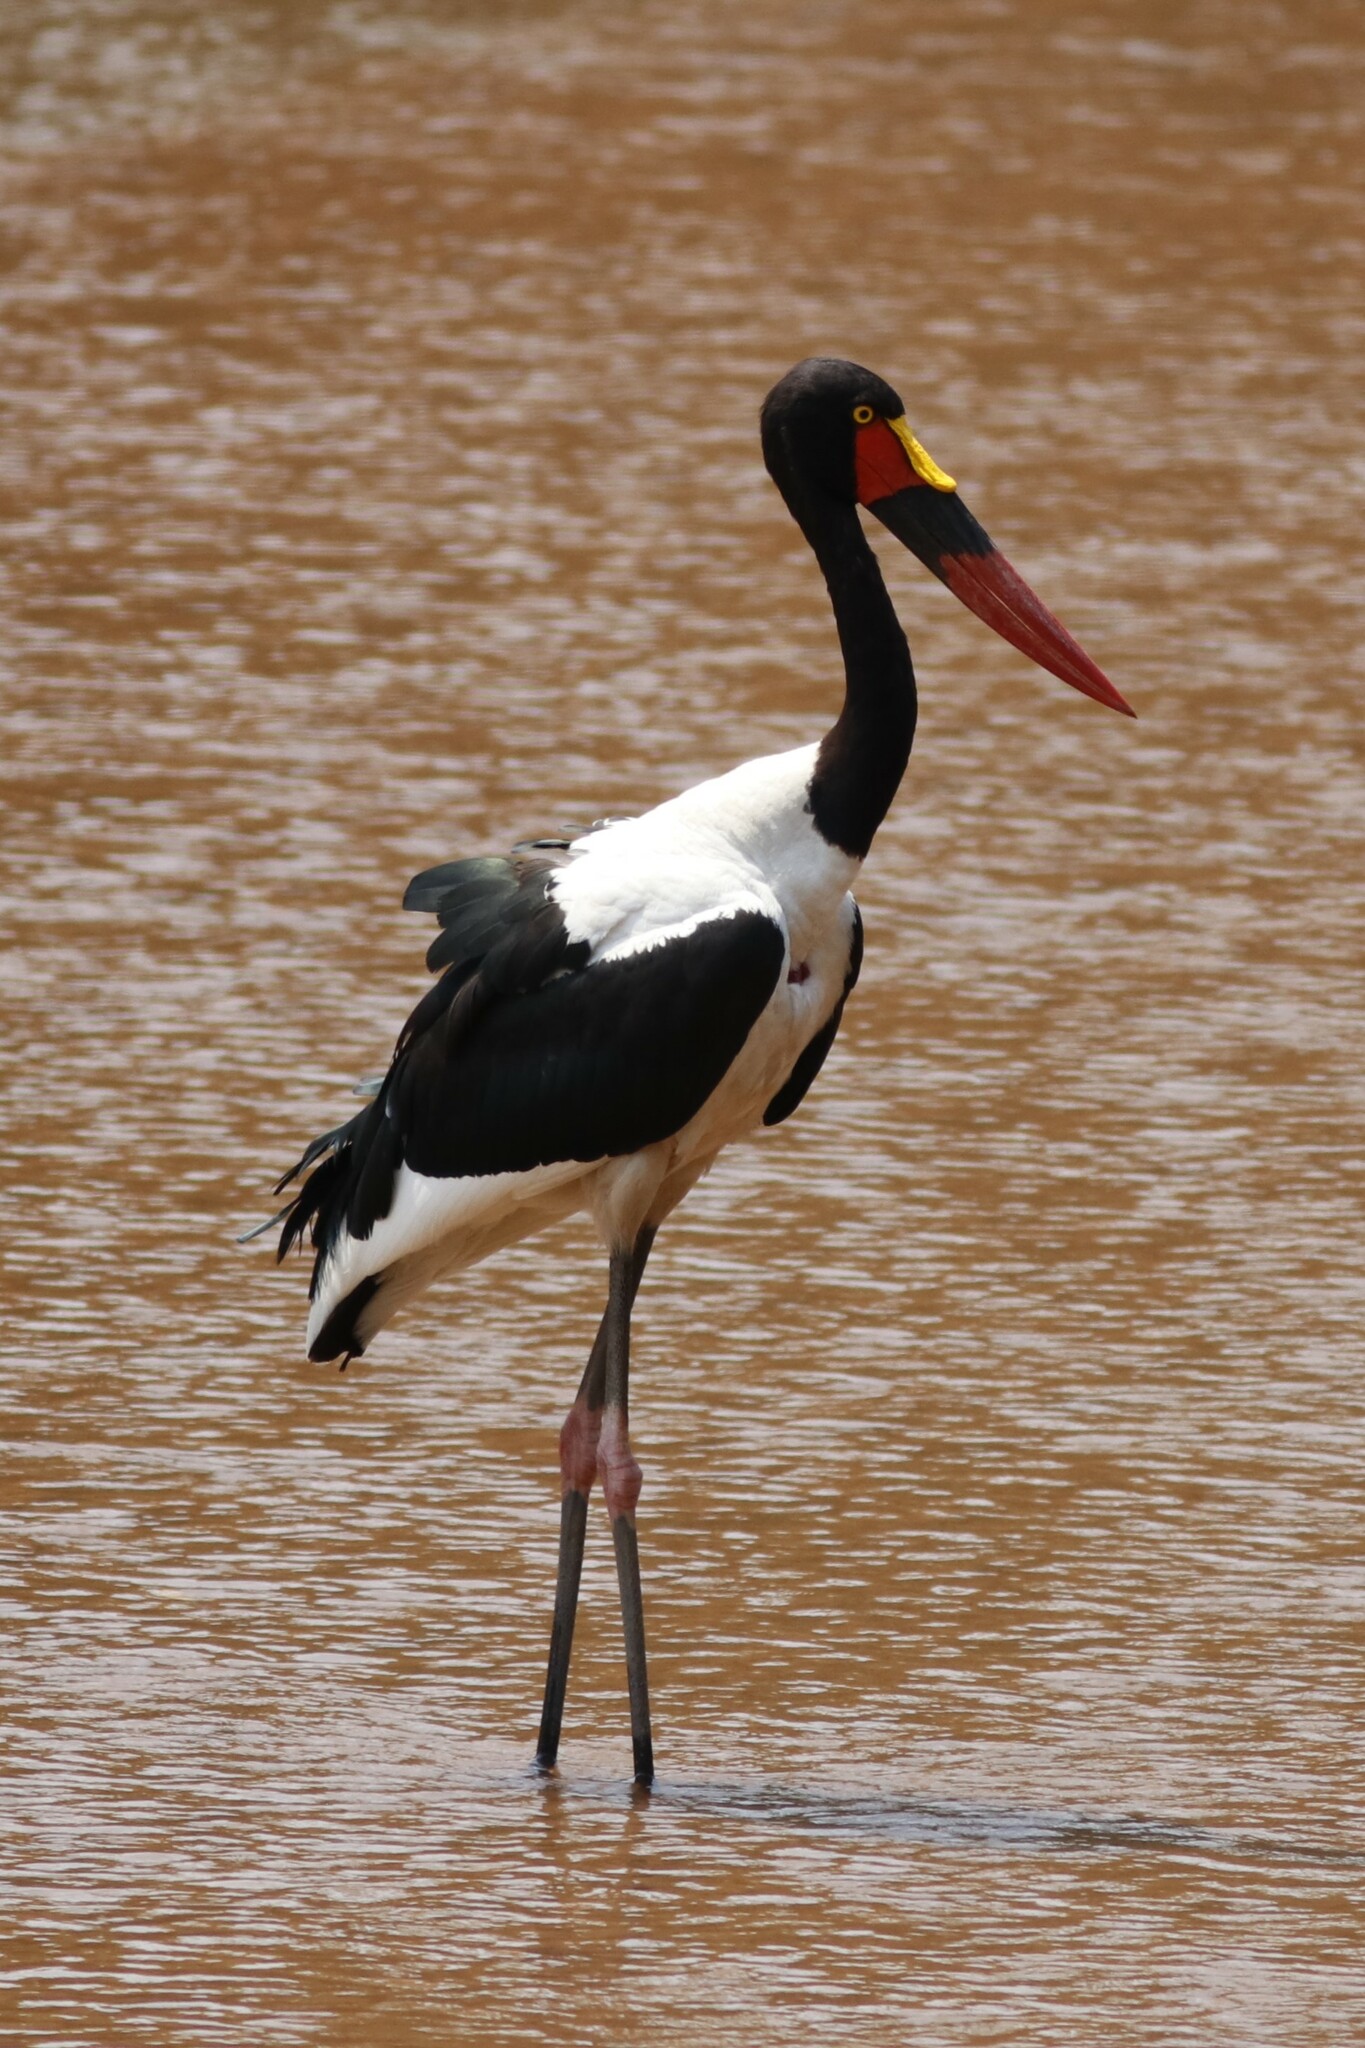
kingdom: Animalia
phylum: Chordata
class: Aves
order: Ciconiiformes
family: Ciconiidae
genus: Ephippiorhynchus
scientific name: Ephippiorhynchus senegalensis
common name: Saddle-billed stork
